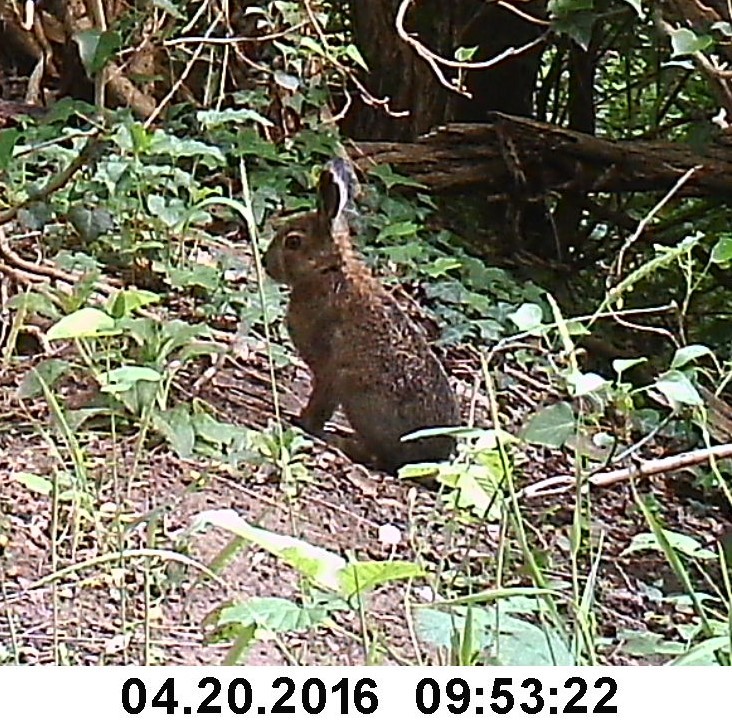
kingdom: Animalia
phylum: Chordata
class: Mammalia
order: Lagomorpha
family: Leporidae
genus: Sylvilagus
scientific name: Sylvilagus floridanus
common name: Eastern cottontail
